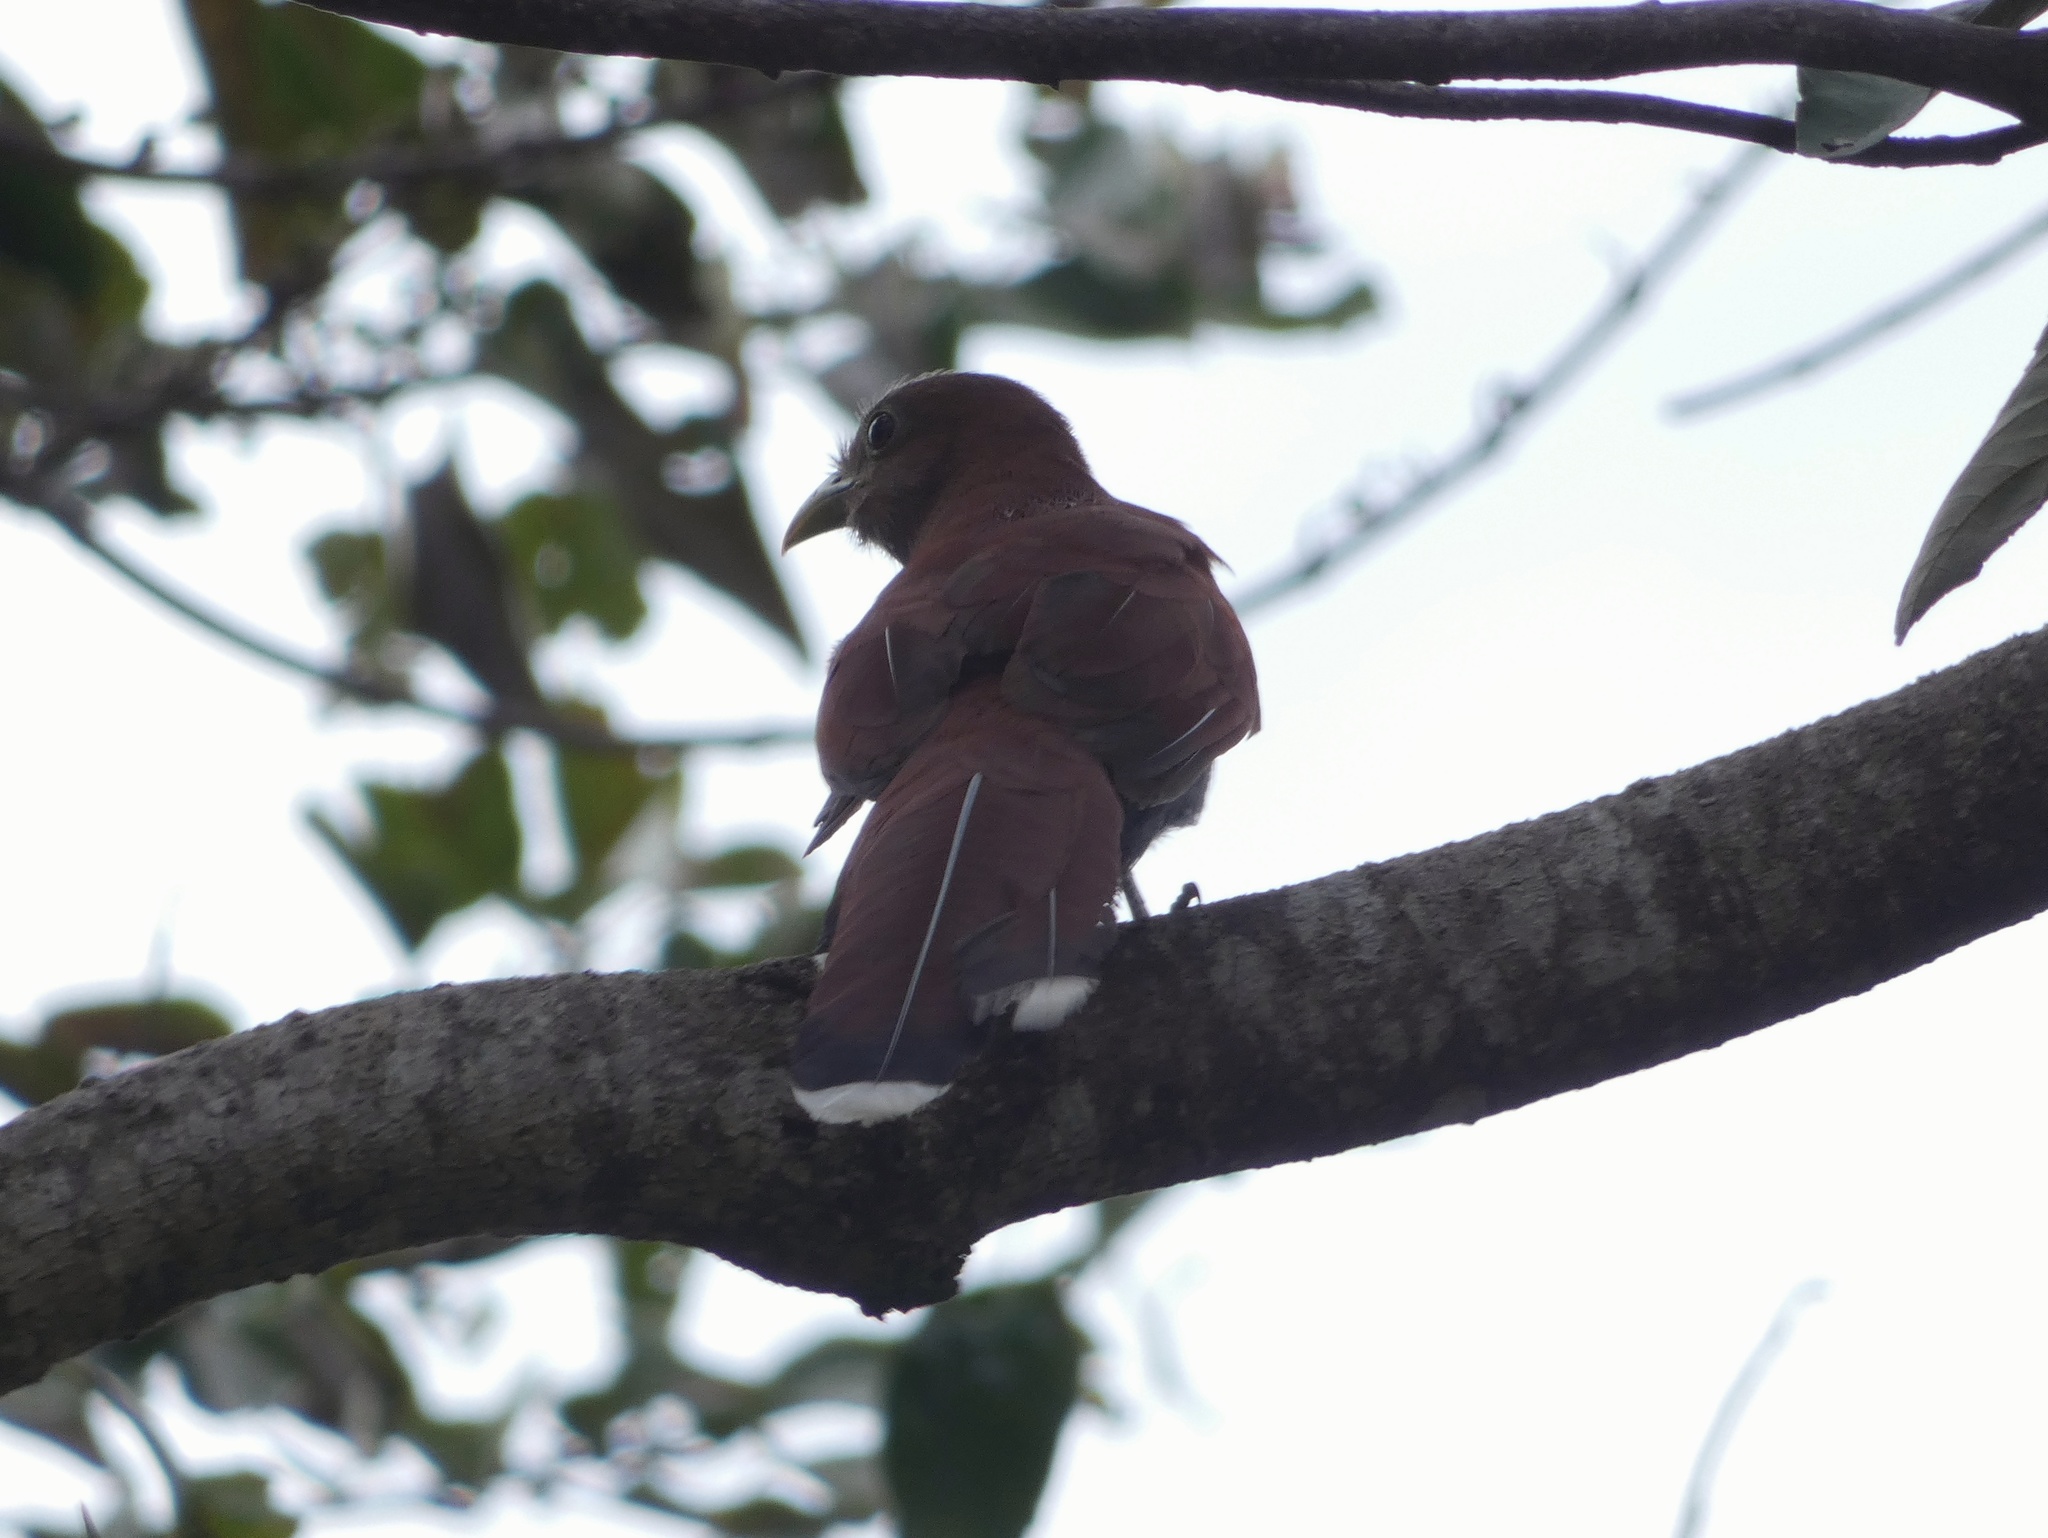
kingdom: Animalia
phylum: Chordata
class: Aves
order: Cuculiformes
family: Cuculidae
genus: Piaya
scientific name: Piaya cayana
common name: Squirrel cuckoo
